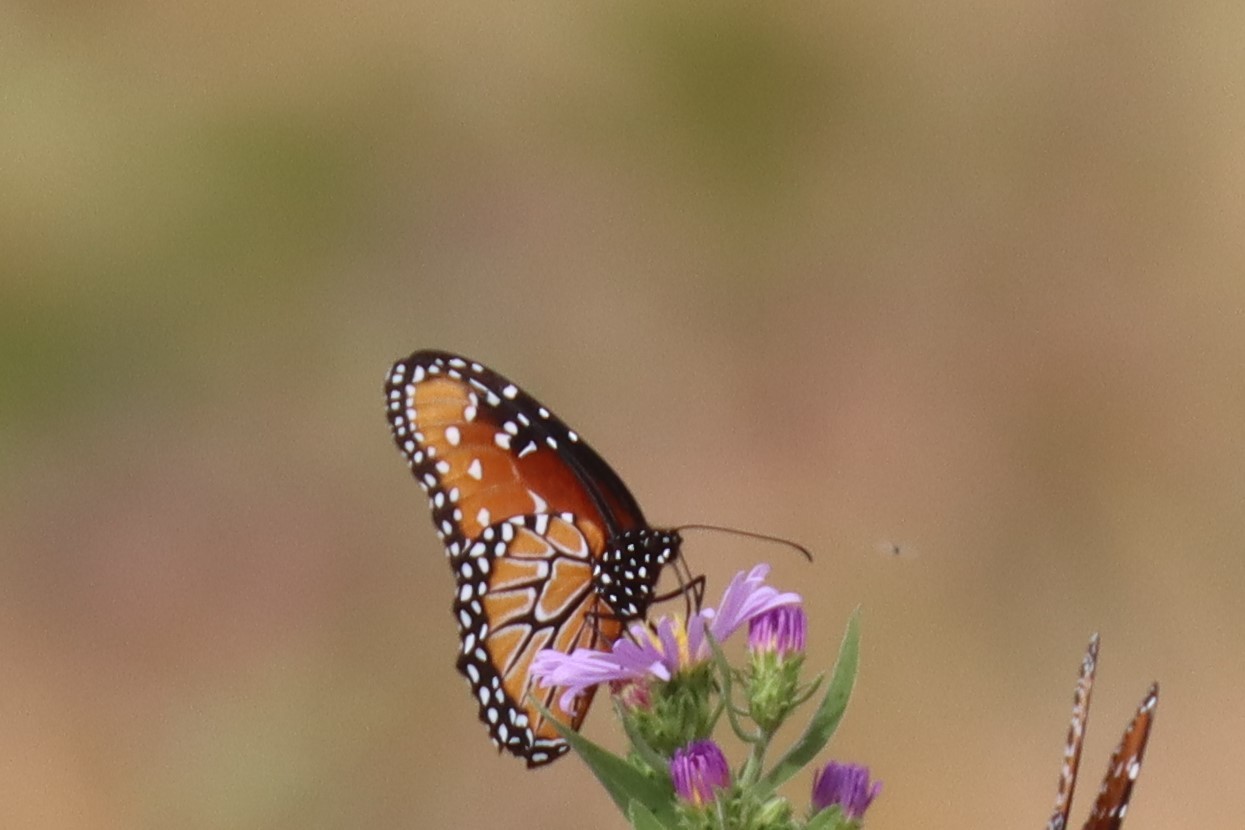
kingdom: Animalia
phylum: Arthropoda
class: Insecta
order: Lepidoptera
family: Nymphalidae
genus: Danaus
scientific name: Danaus gilippus
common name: Queen
